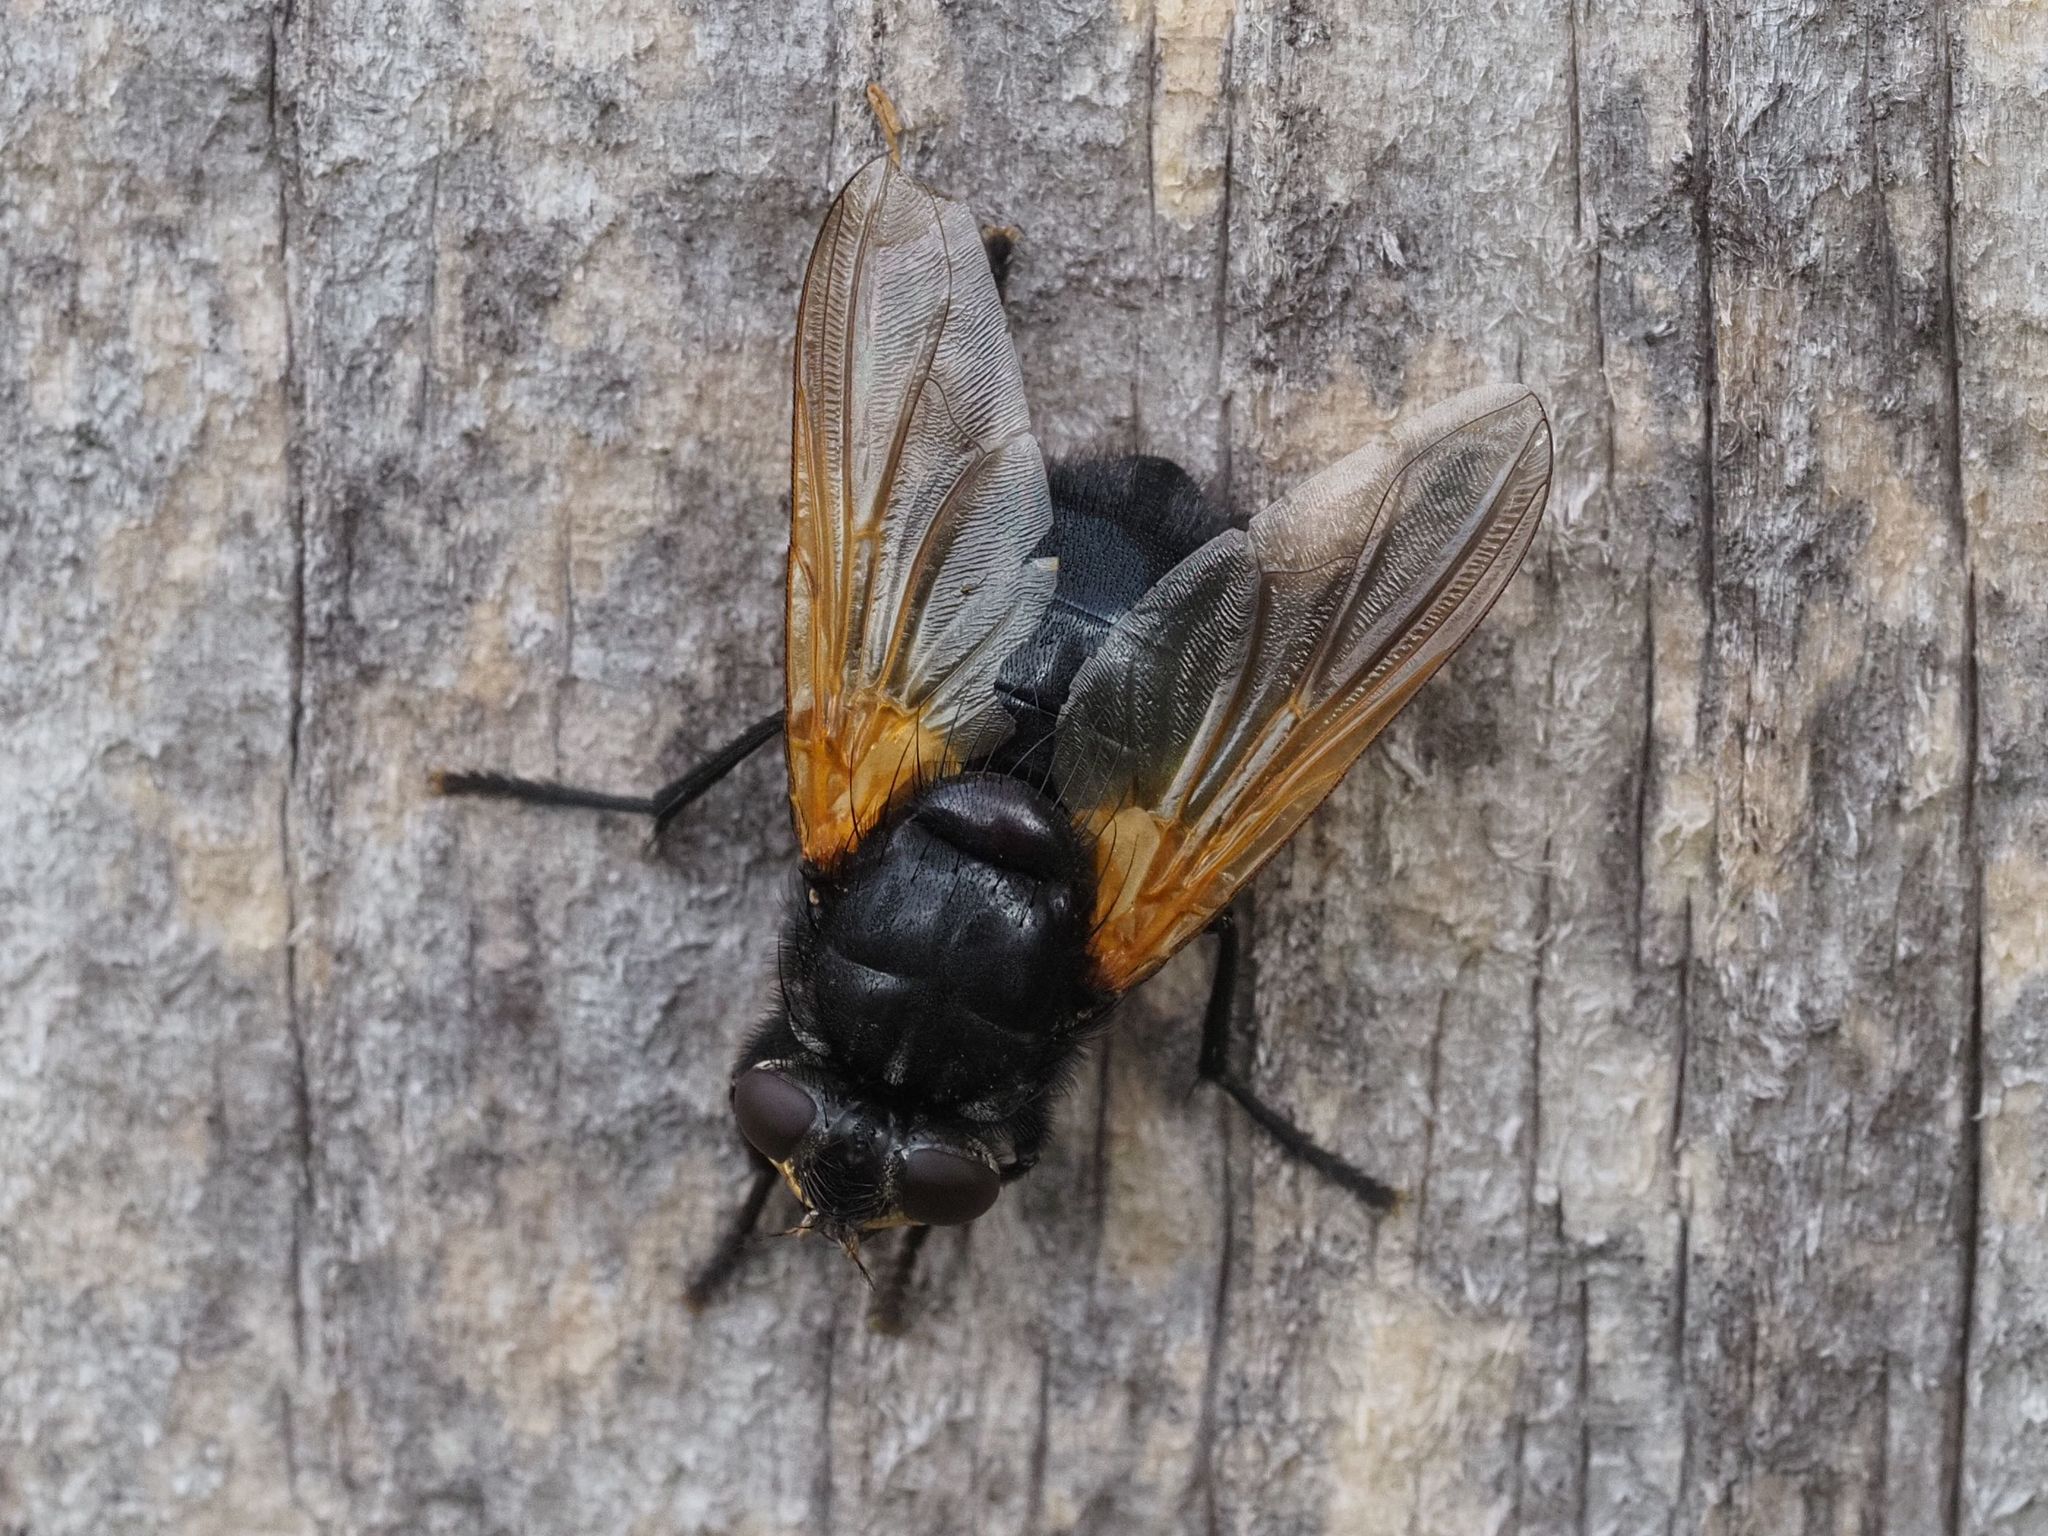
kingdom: Animalia
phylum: Arthropoda
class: Insecta
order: Diptera
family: Muscidae
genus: Mesembrina
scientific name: Mesembrina meridiana
